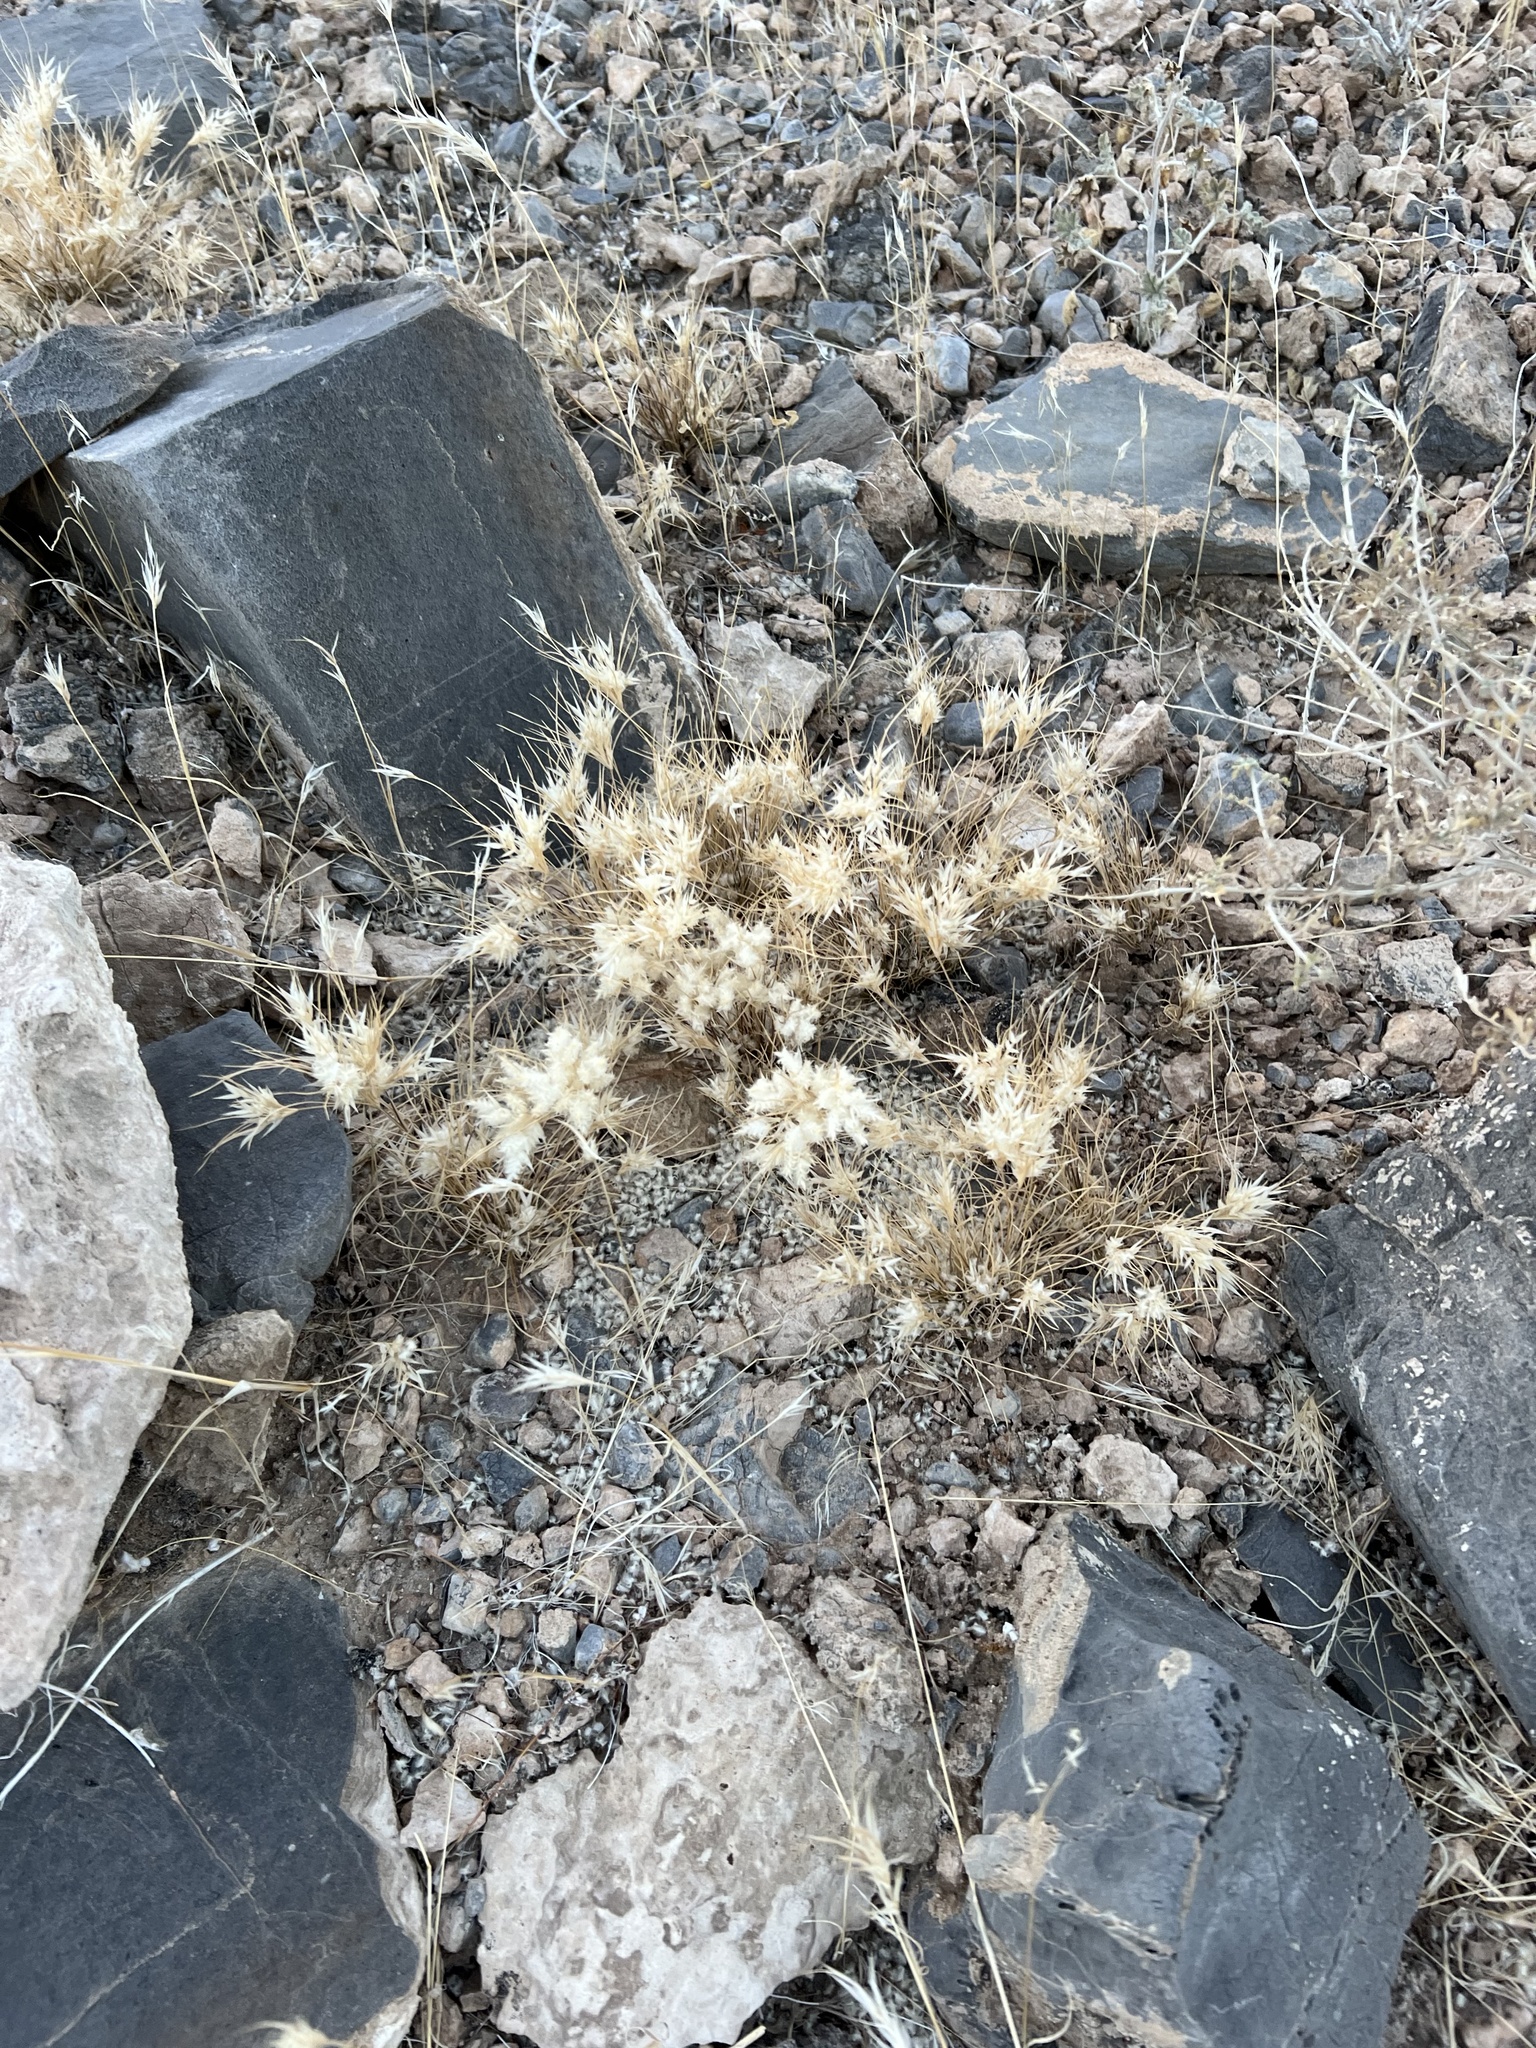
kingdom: Plantae
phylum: Tracheophyta
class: Liliopsida
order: Poales
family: Poaceae
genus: Dasyochloa
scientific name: Dasyochloa pulchella
